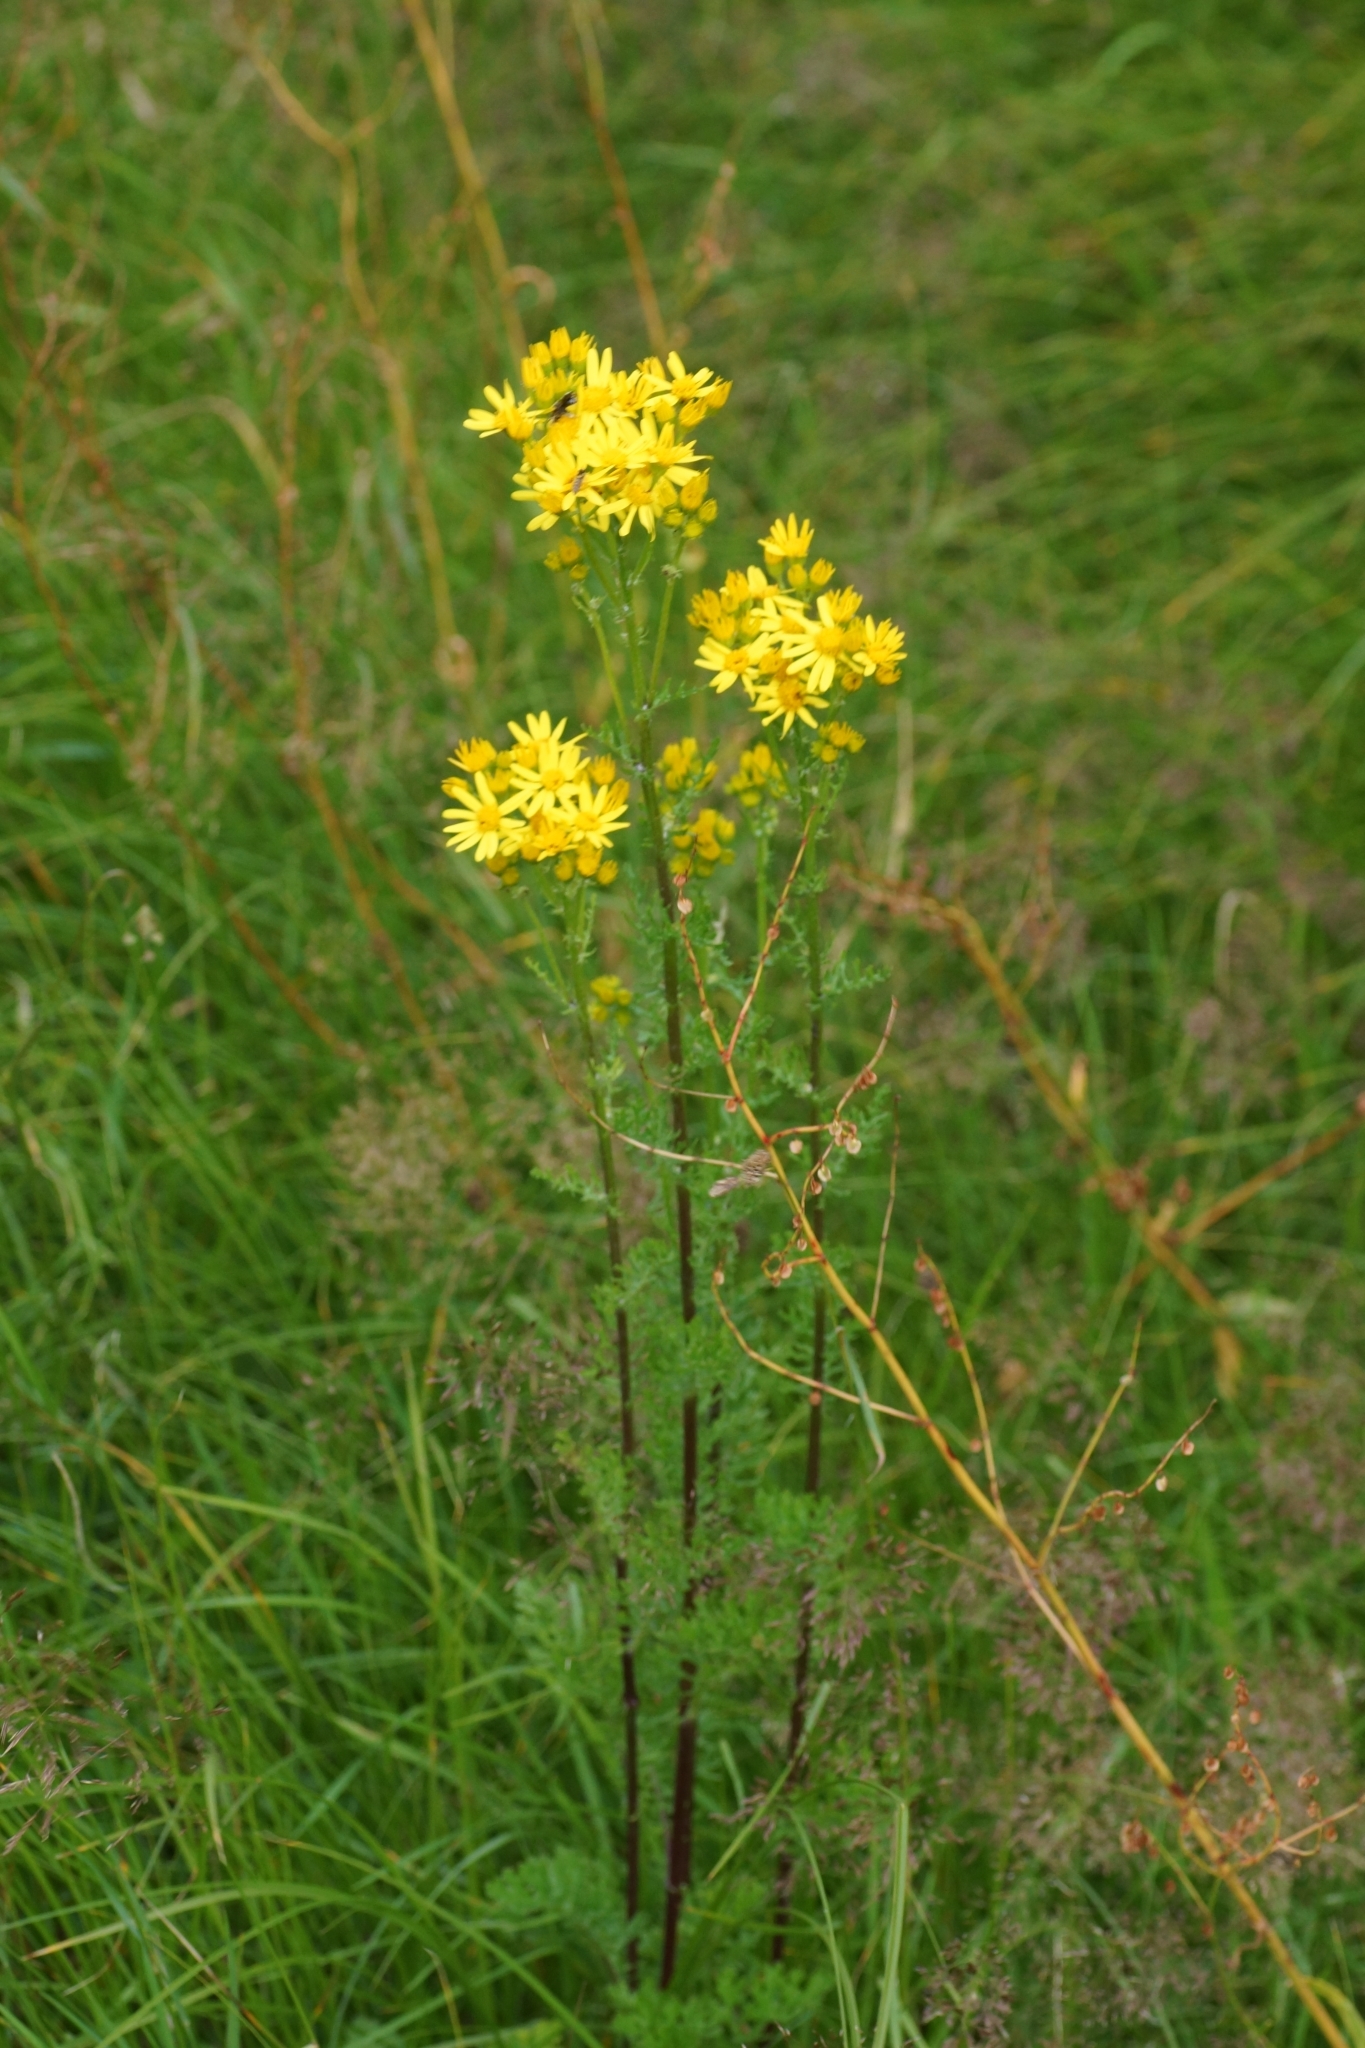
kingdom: Plantae
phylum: Tracheophyta
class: Magnoliopsida
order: Asterales
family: Asteraceae
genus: Jacobaea
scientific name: Jacobaea vulgaris
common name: Stinking willie
